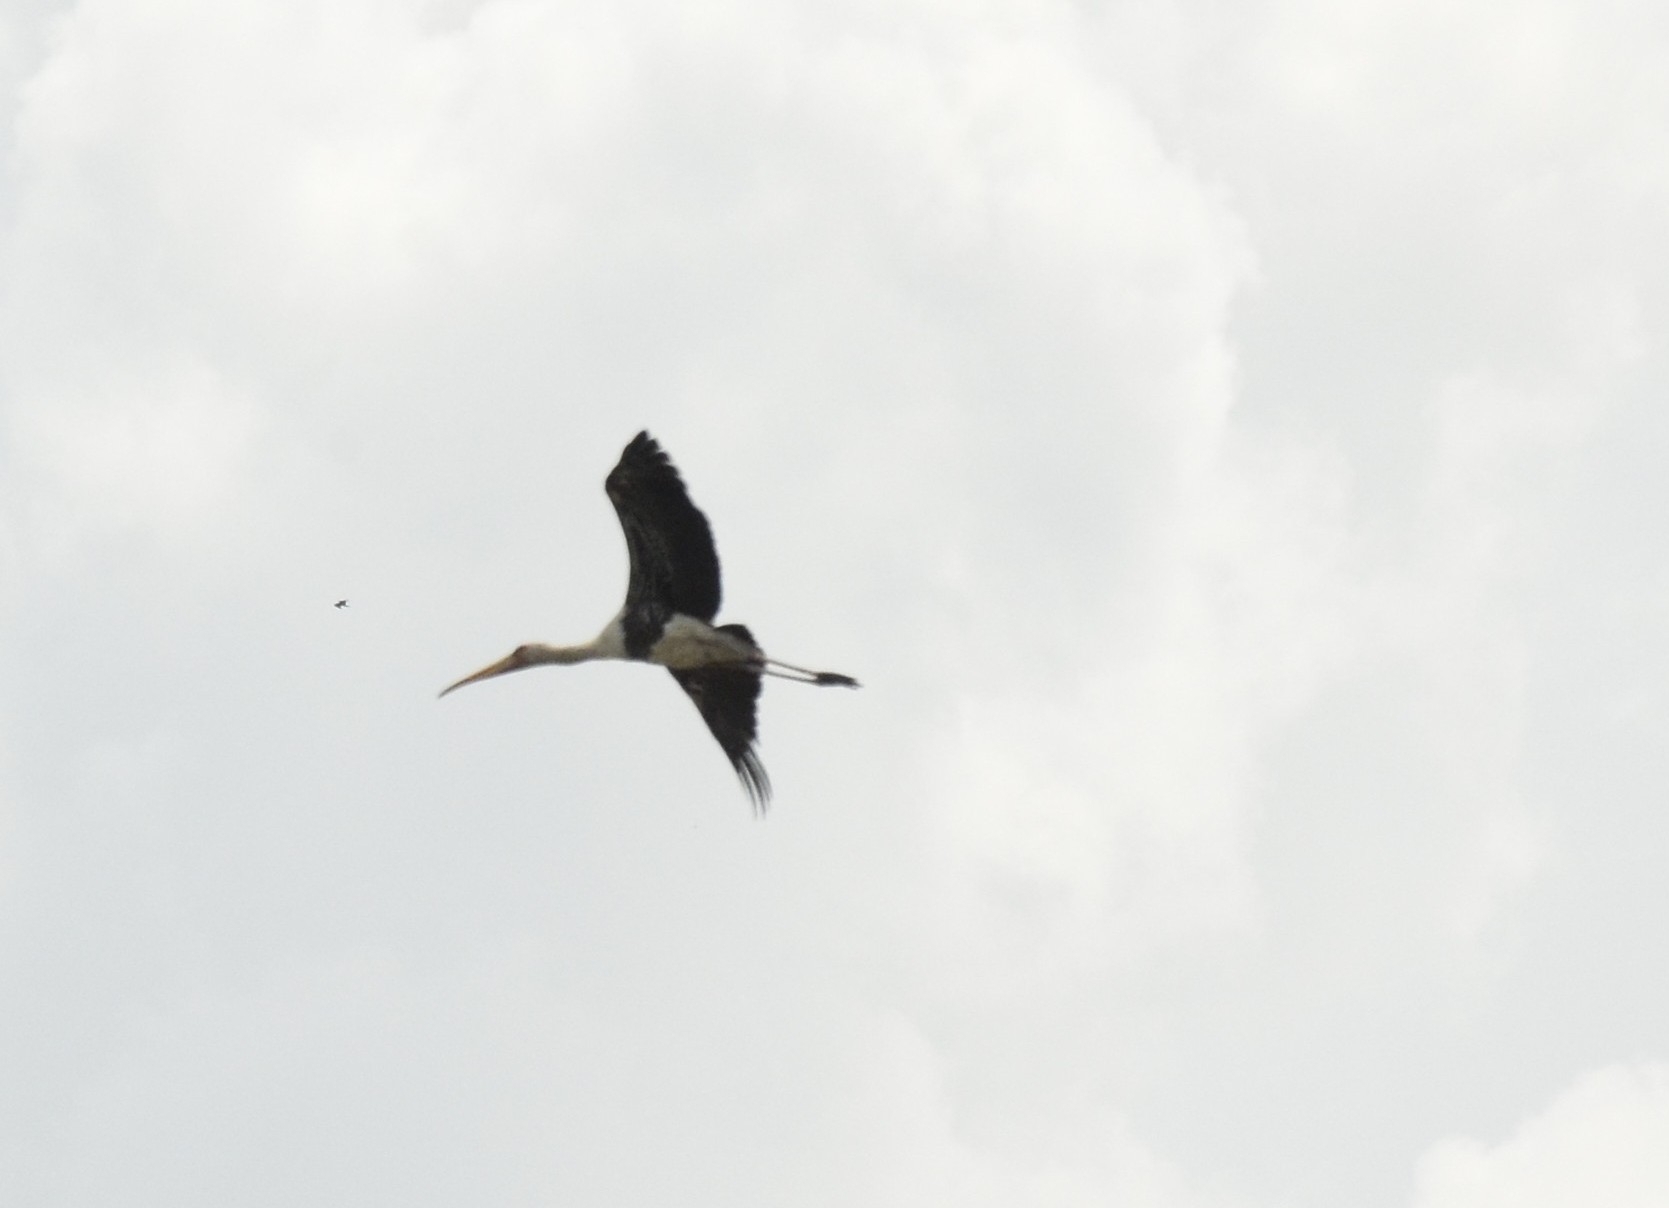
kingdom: Animalia
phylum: Chordata
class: Aves
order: Ciconiiformes
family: Ciconiidae
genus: Mycteria
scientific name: Mycteria leucocephala
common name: Painted stork
